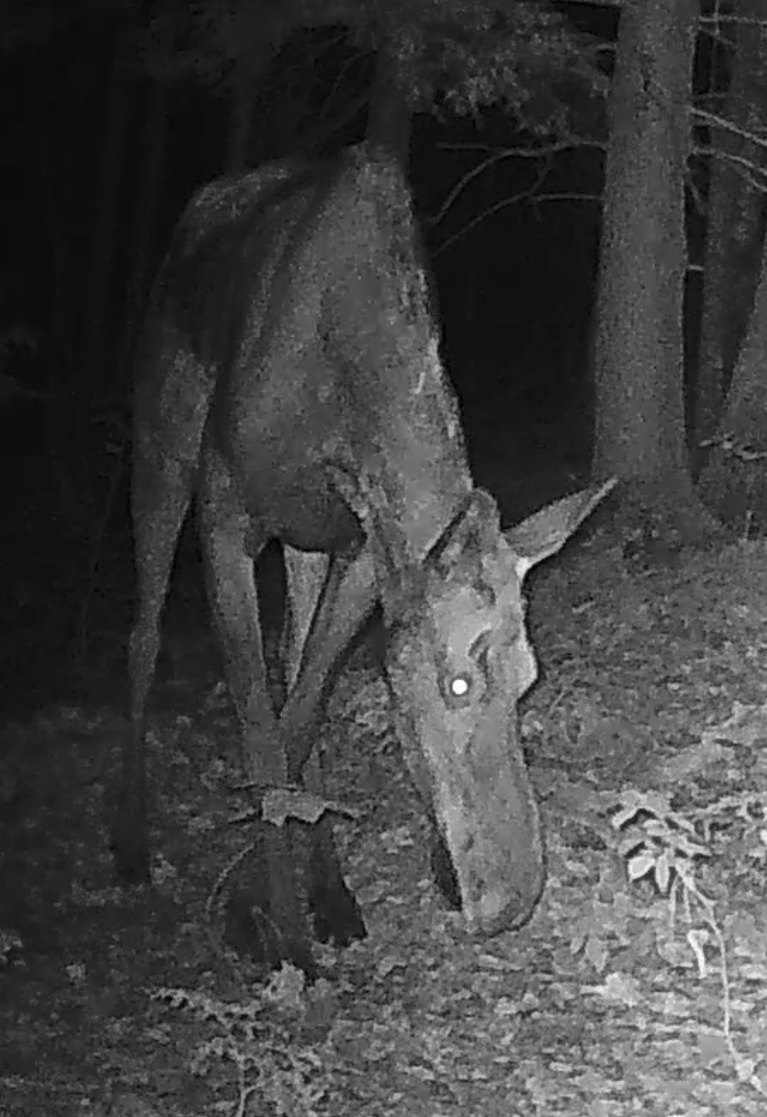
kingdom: Animalia
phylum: Chordata
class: Mammalia
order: Artiodactyla
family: Cervidae
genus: Alces
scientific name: Alces alces
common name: Moose
